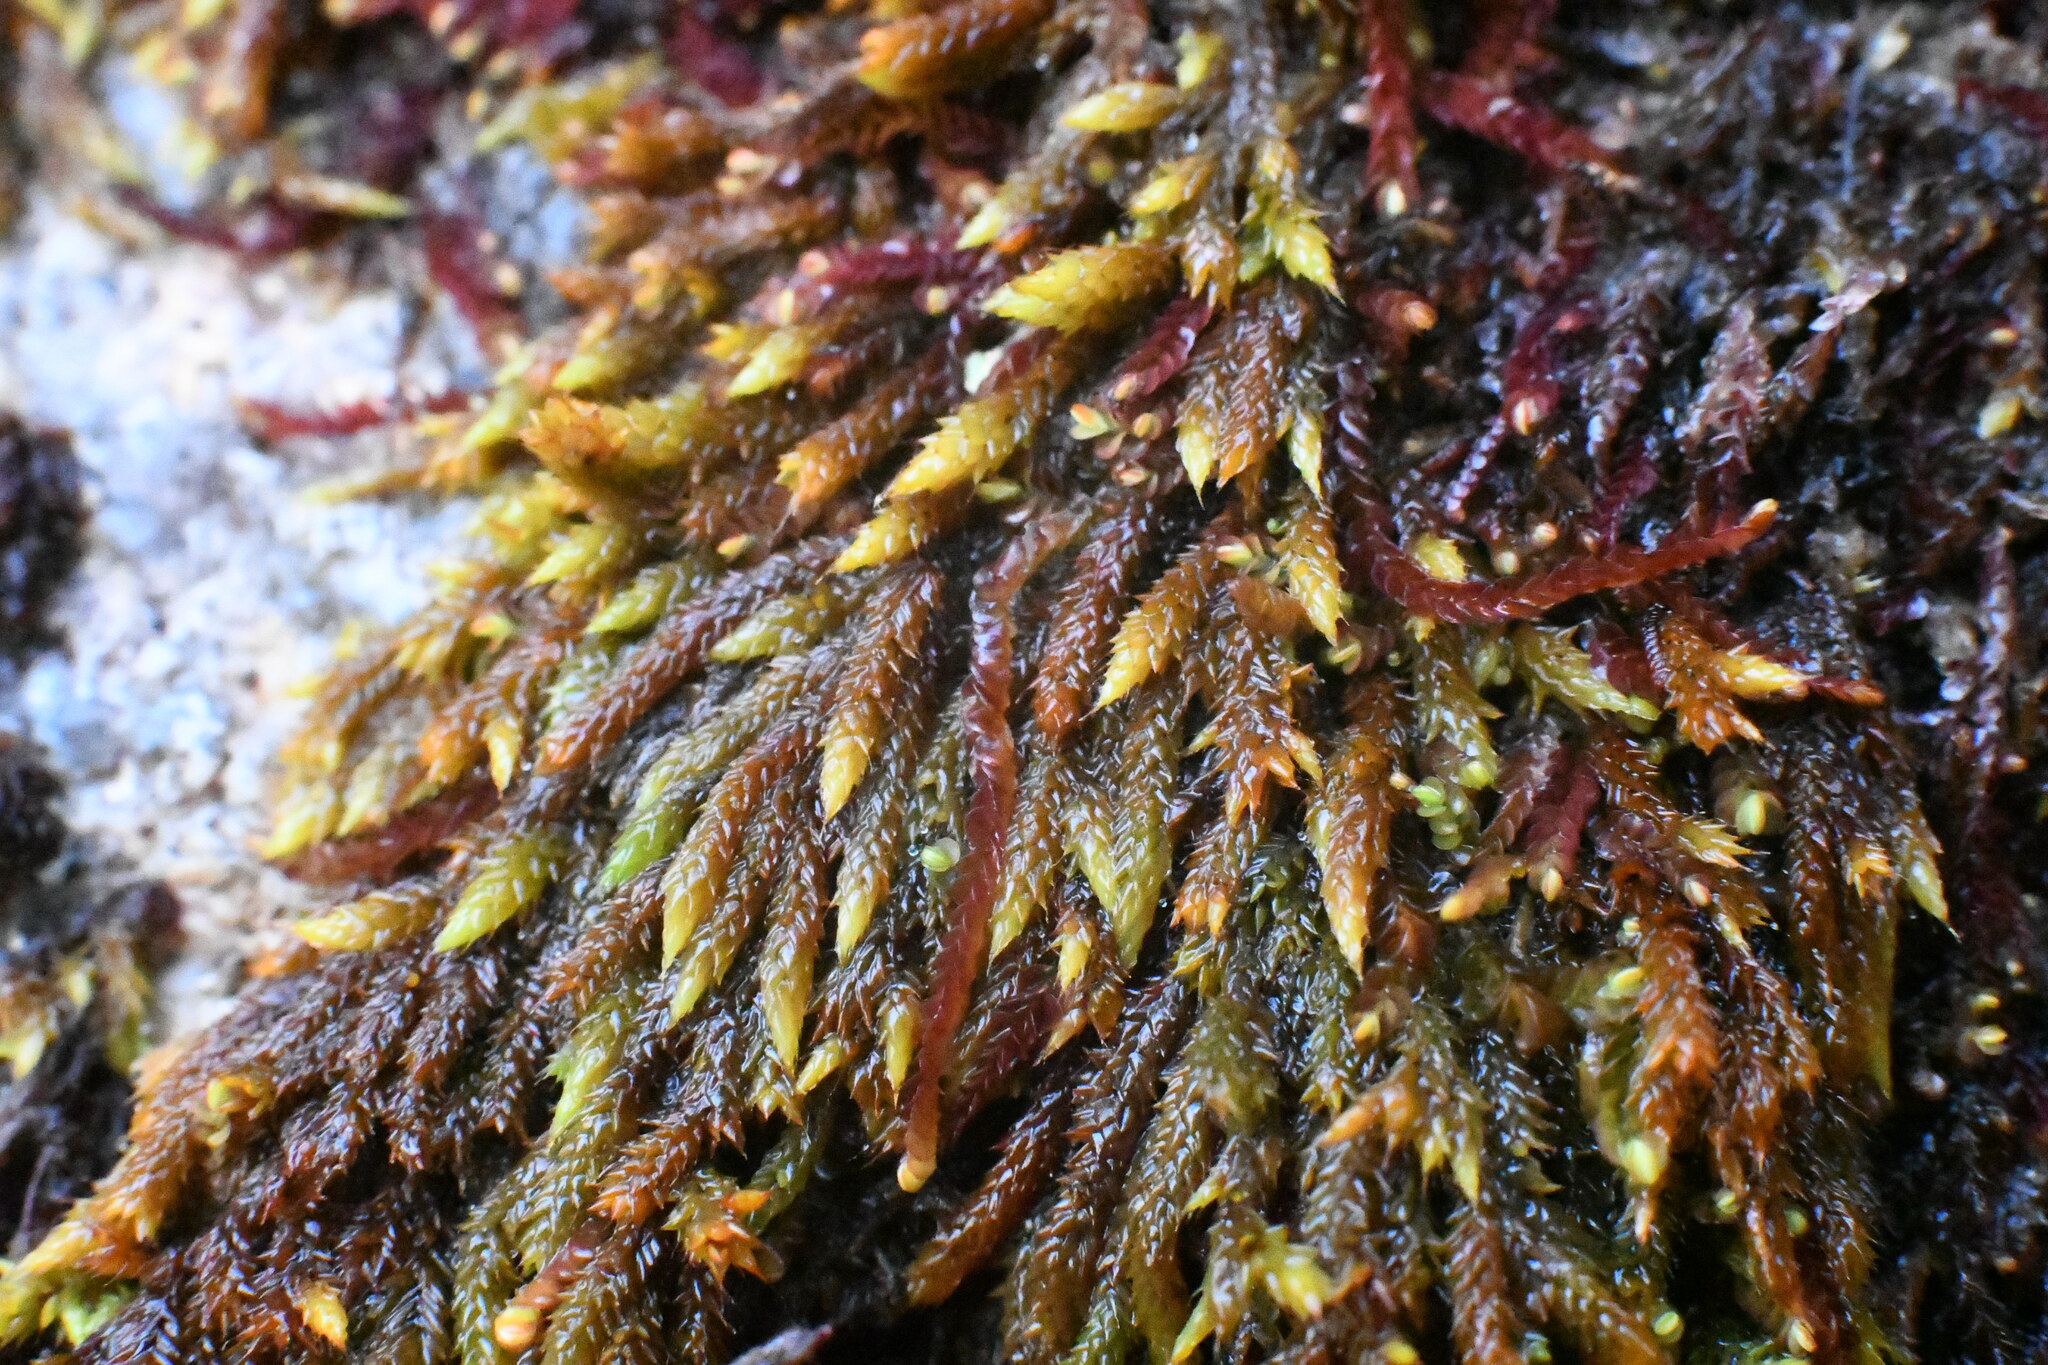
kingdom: Plantae
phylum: Bryophyta
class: Bryopsida
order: Hedwigiales
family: Hedwigiaceae
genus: Rhacocarpus
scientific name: Rhacocarpus purpurascens
